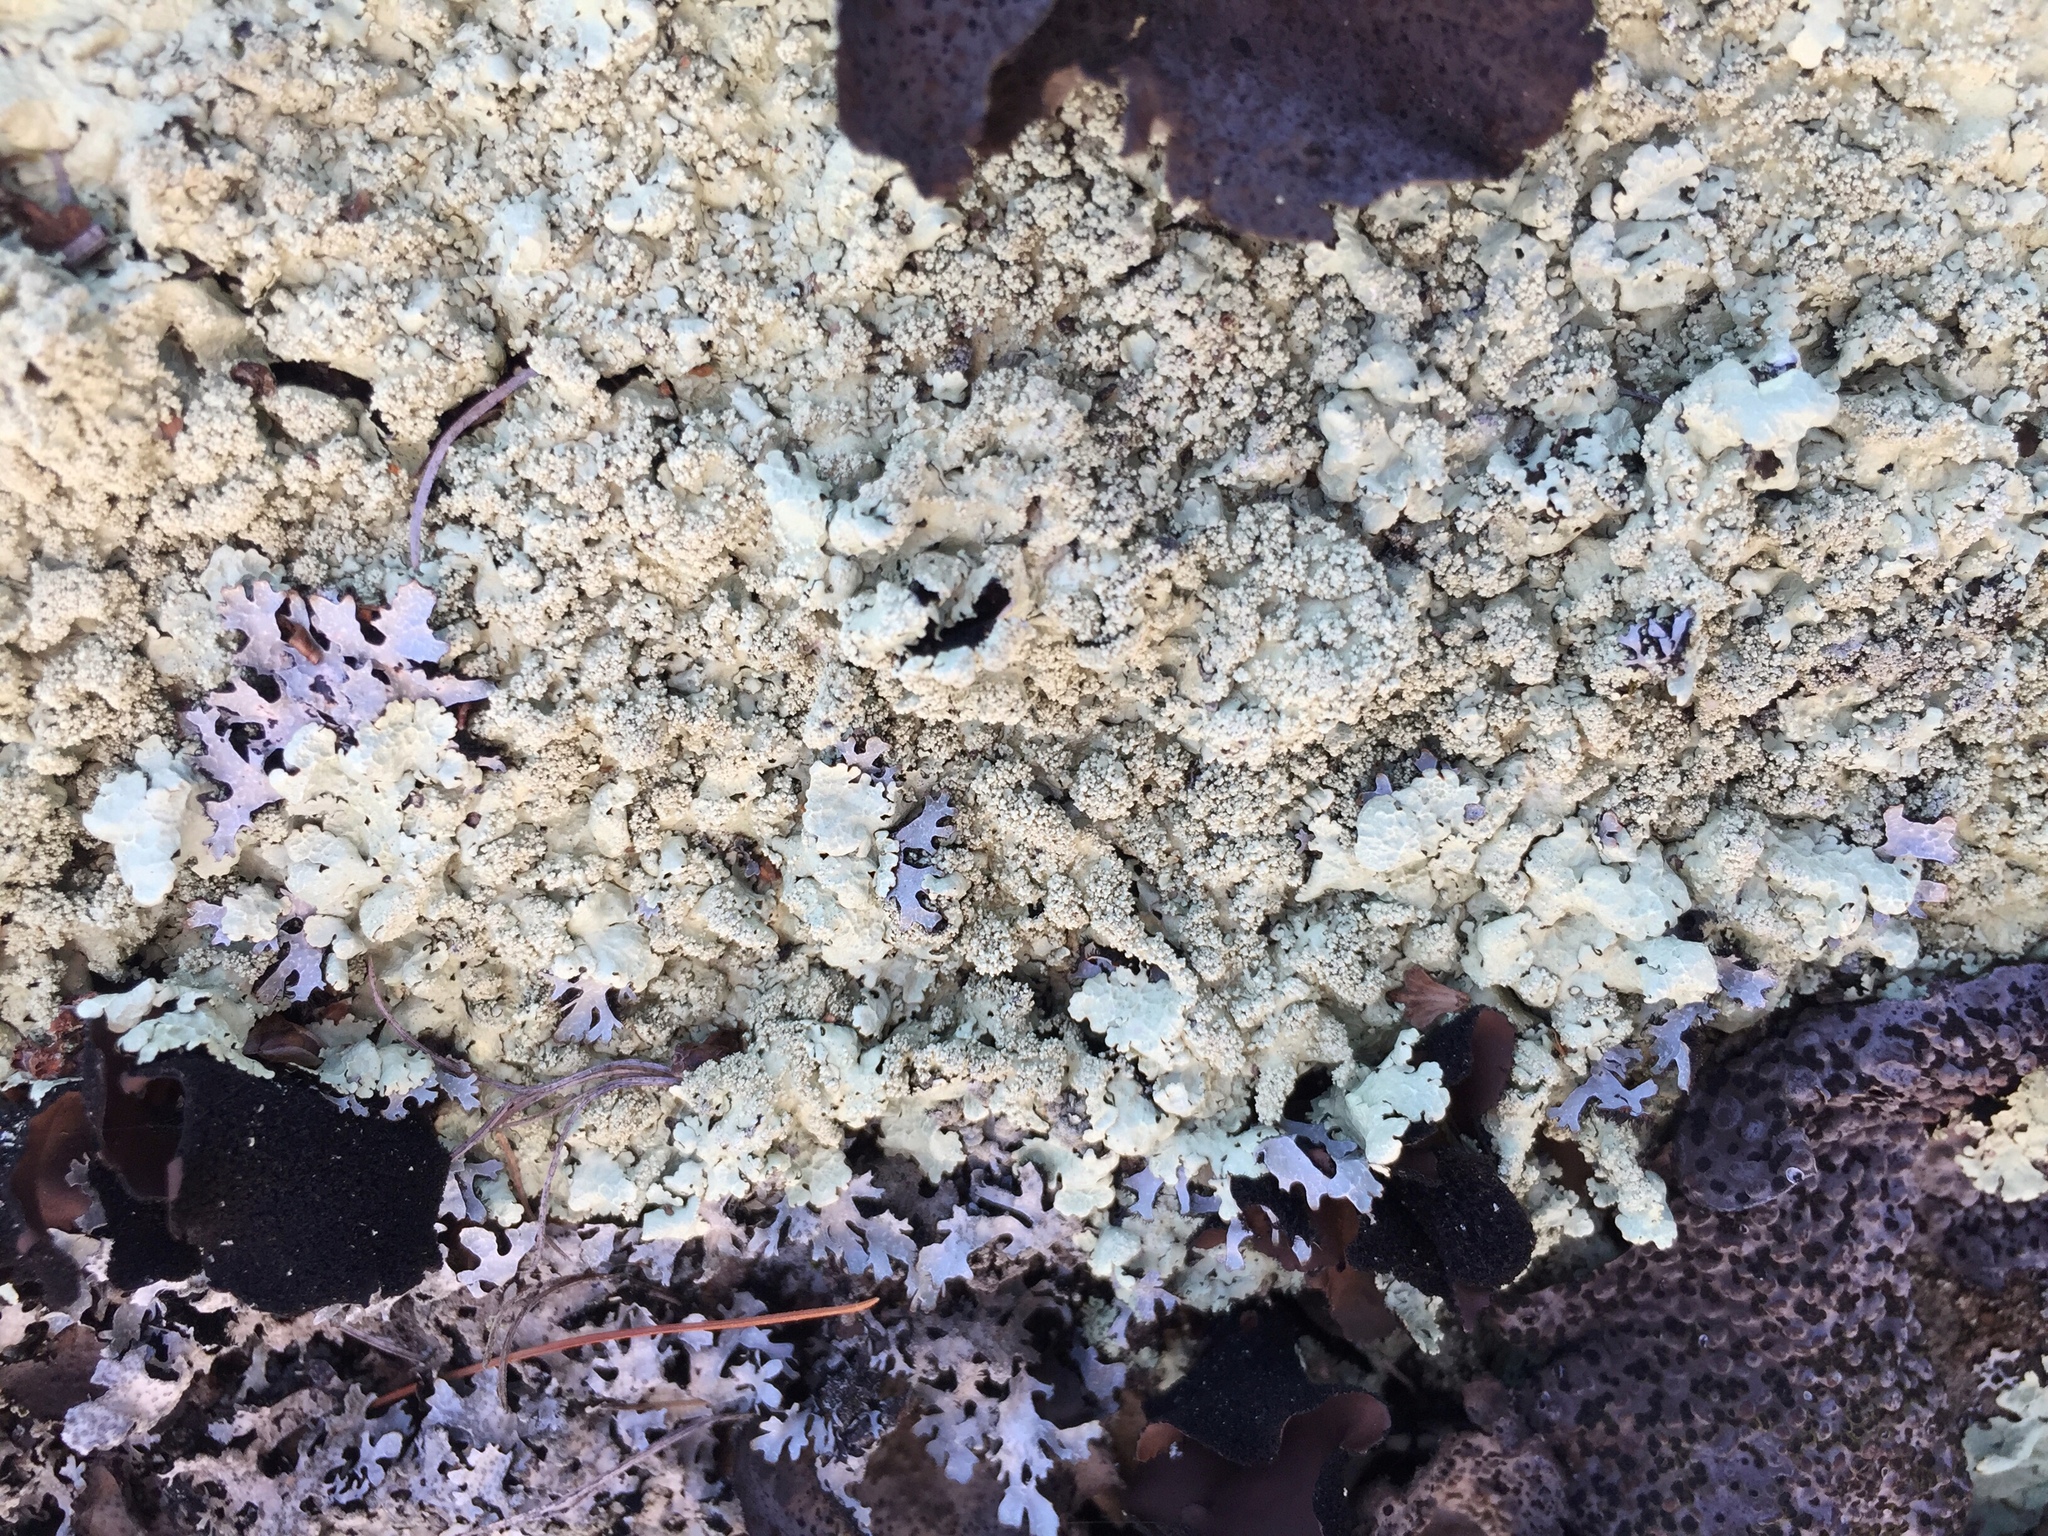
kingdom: Fungi
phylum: Ascomycota
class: Lecanoromycetes
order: Lecanorales
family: Parmeliaceae
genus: Flavoparmelia
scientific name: Flavoparmelia baltimorensis
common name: Rock greenshield
